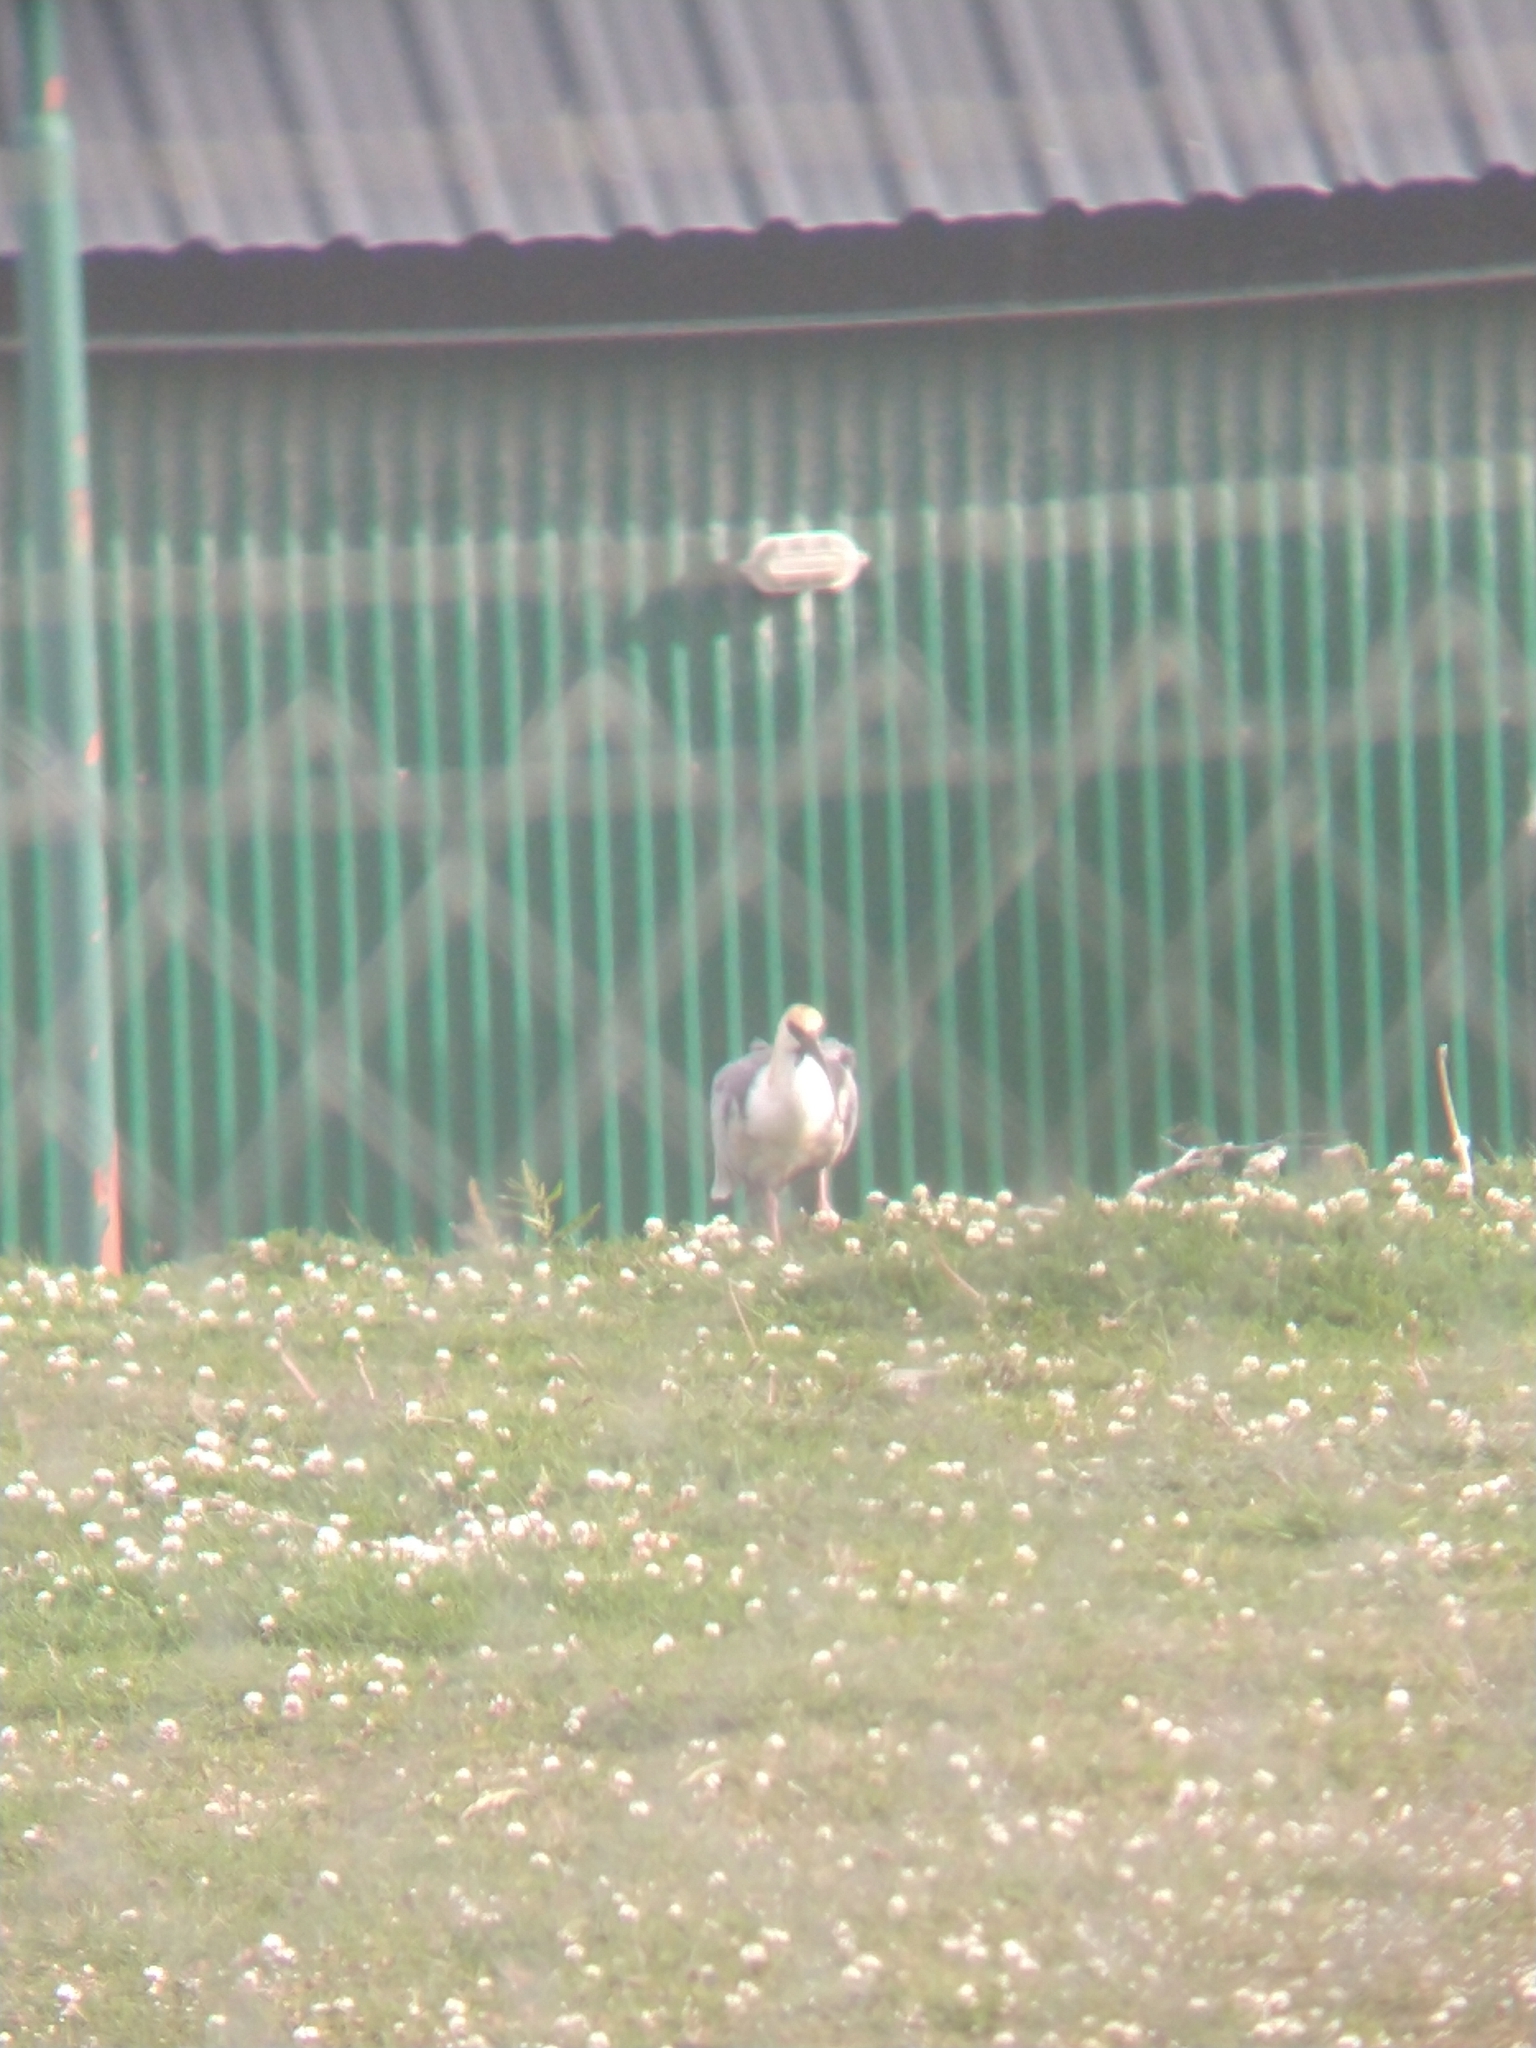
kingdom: Animalia
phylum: Chordata
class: Aves
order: Pelecaniformes
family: Threskiornithidae
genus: Theristicus
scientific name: Theristicus melanopis
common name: Black-faced ibis
